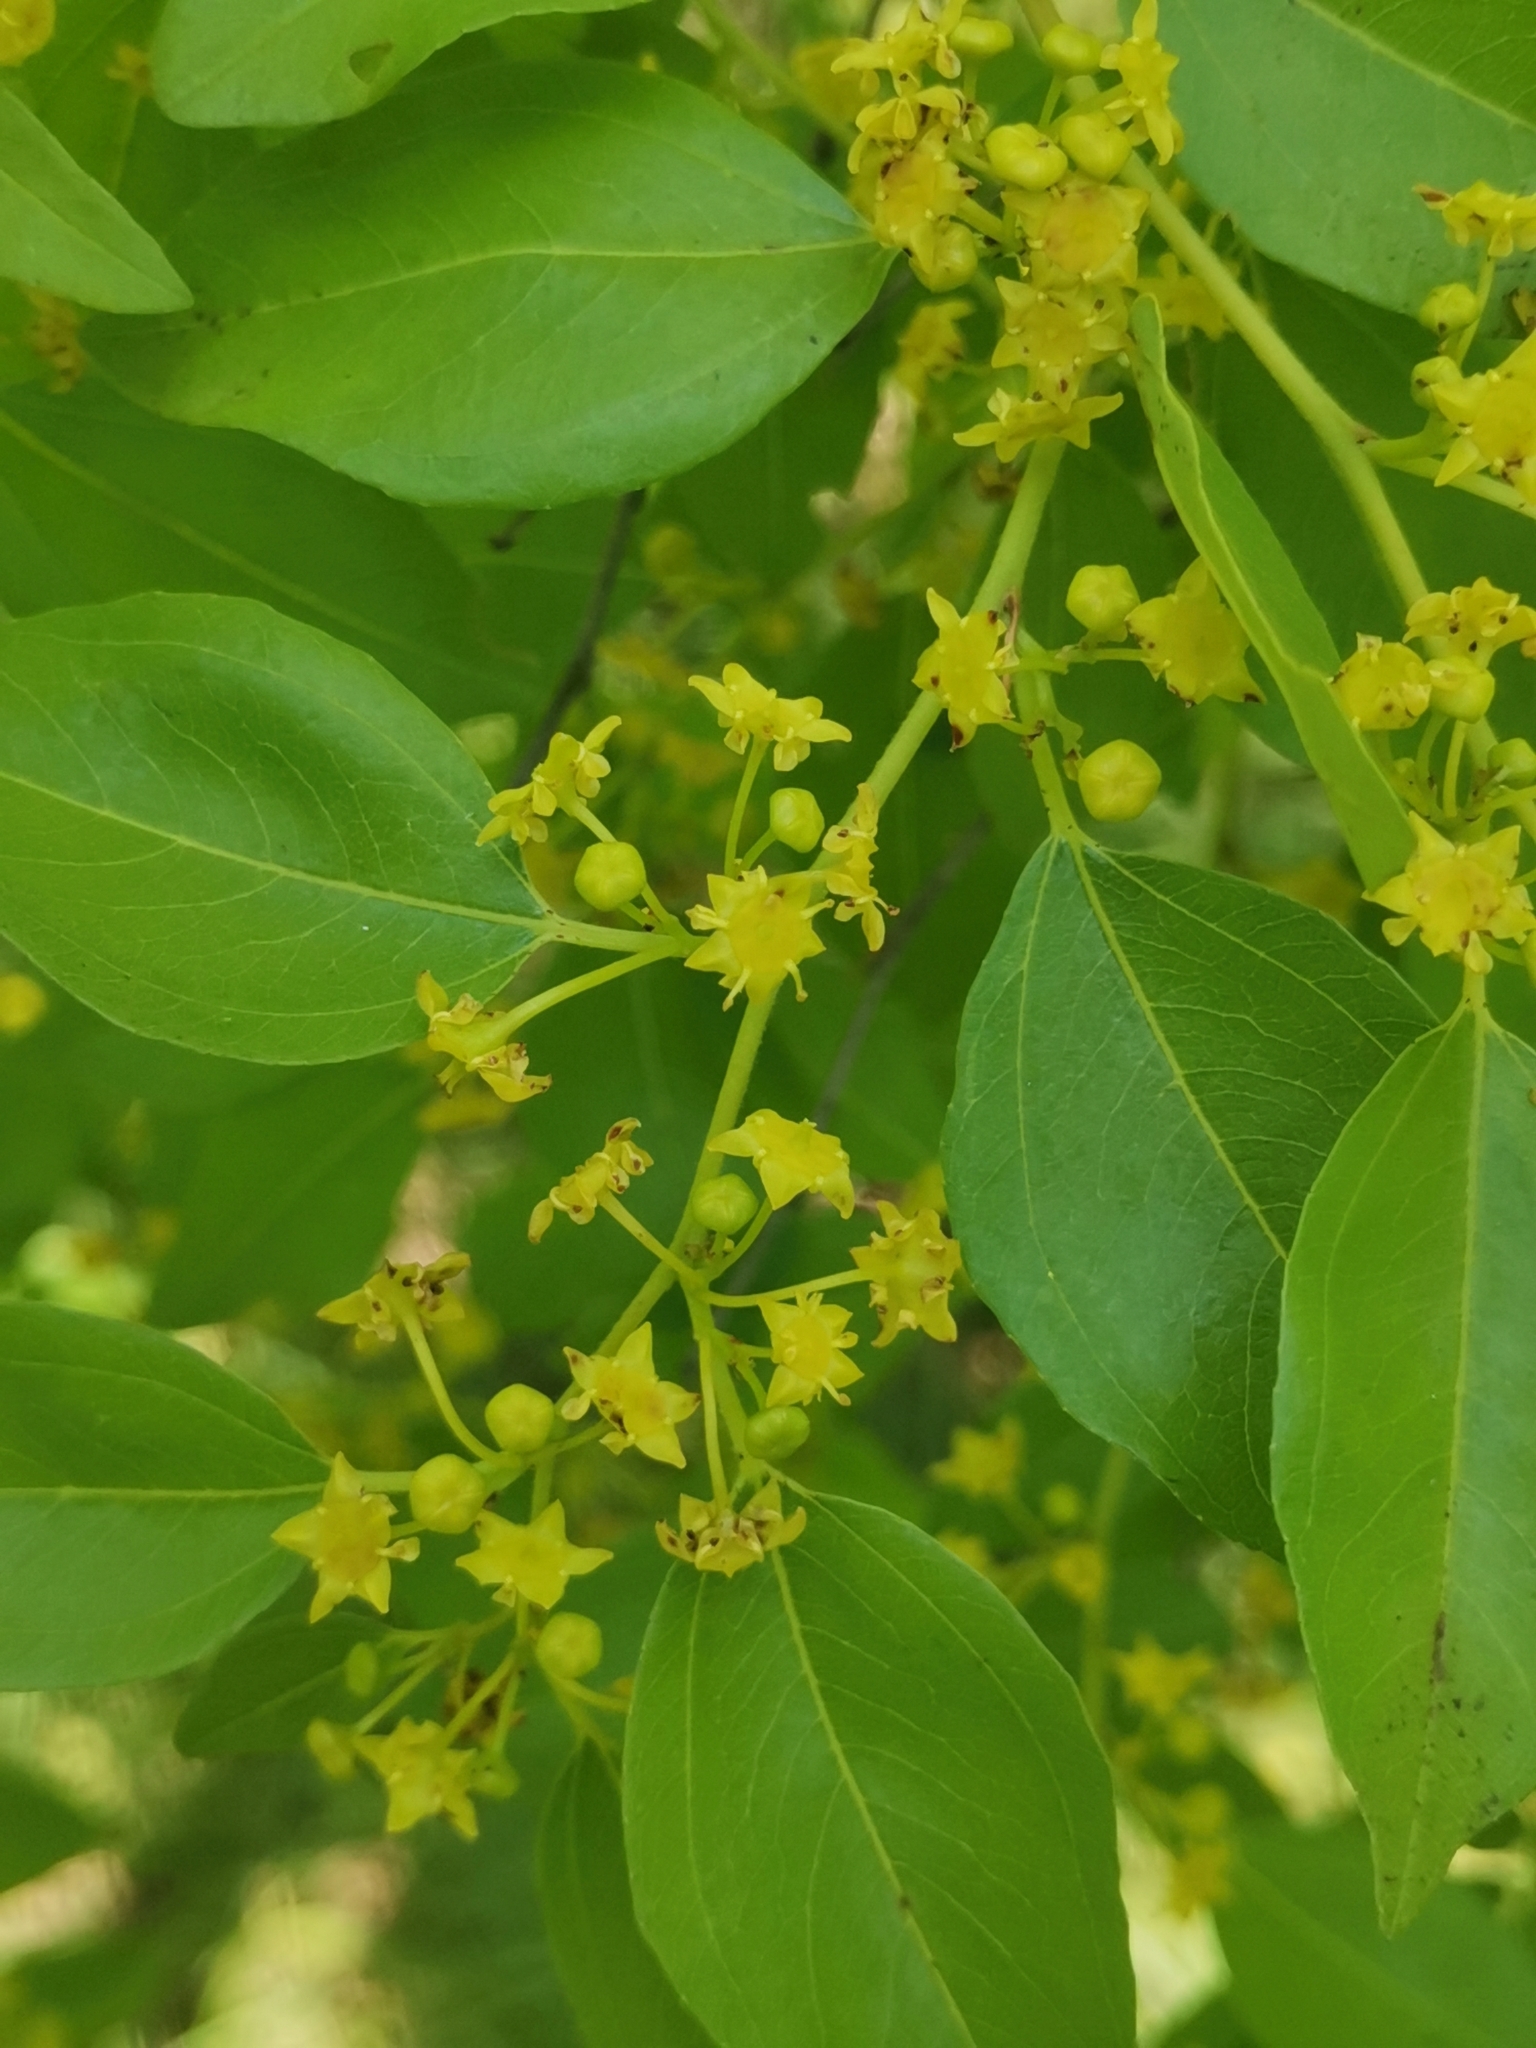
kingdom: Plantae
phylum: Tracheophyta
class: Magnoliopsida
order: Rosales
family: Rhamnaceae
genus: Paliurus
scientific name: Paliurus spina-christi
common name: Jeruselem thorn
